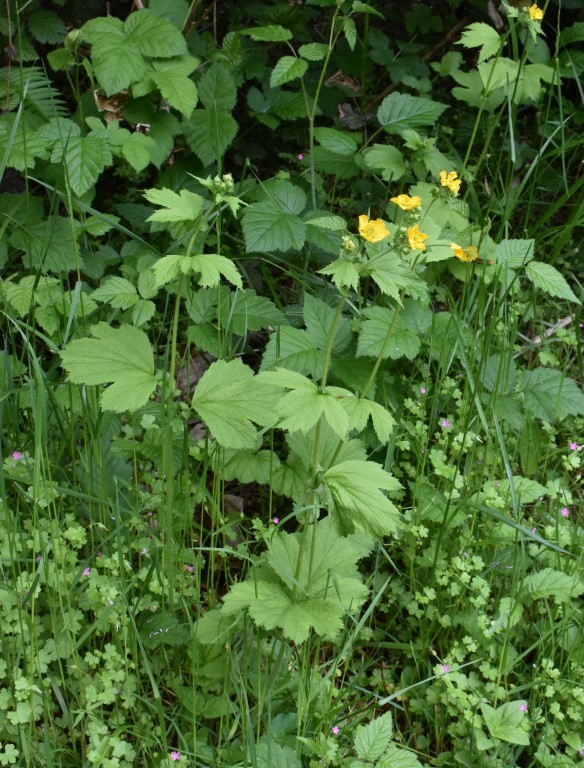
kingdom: Plantae
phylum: Tracheophyta
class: Magnoliopsida
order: Rosales
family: Rosaceae
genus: Geum
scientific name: Geum macrophyllum
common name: Large-leaved avens
